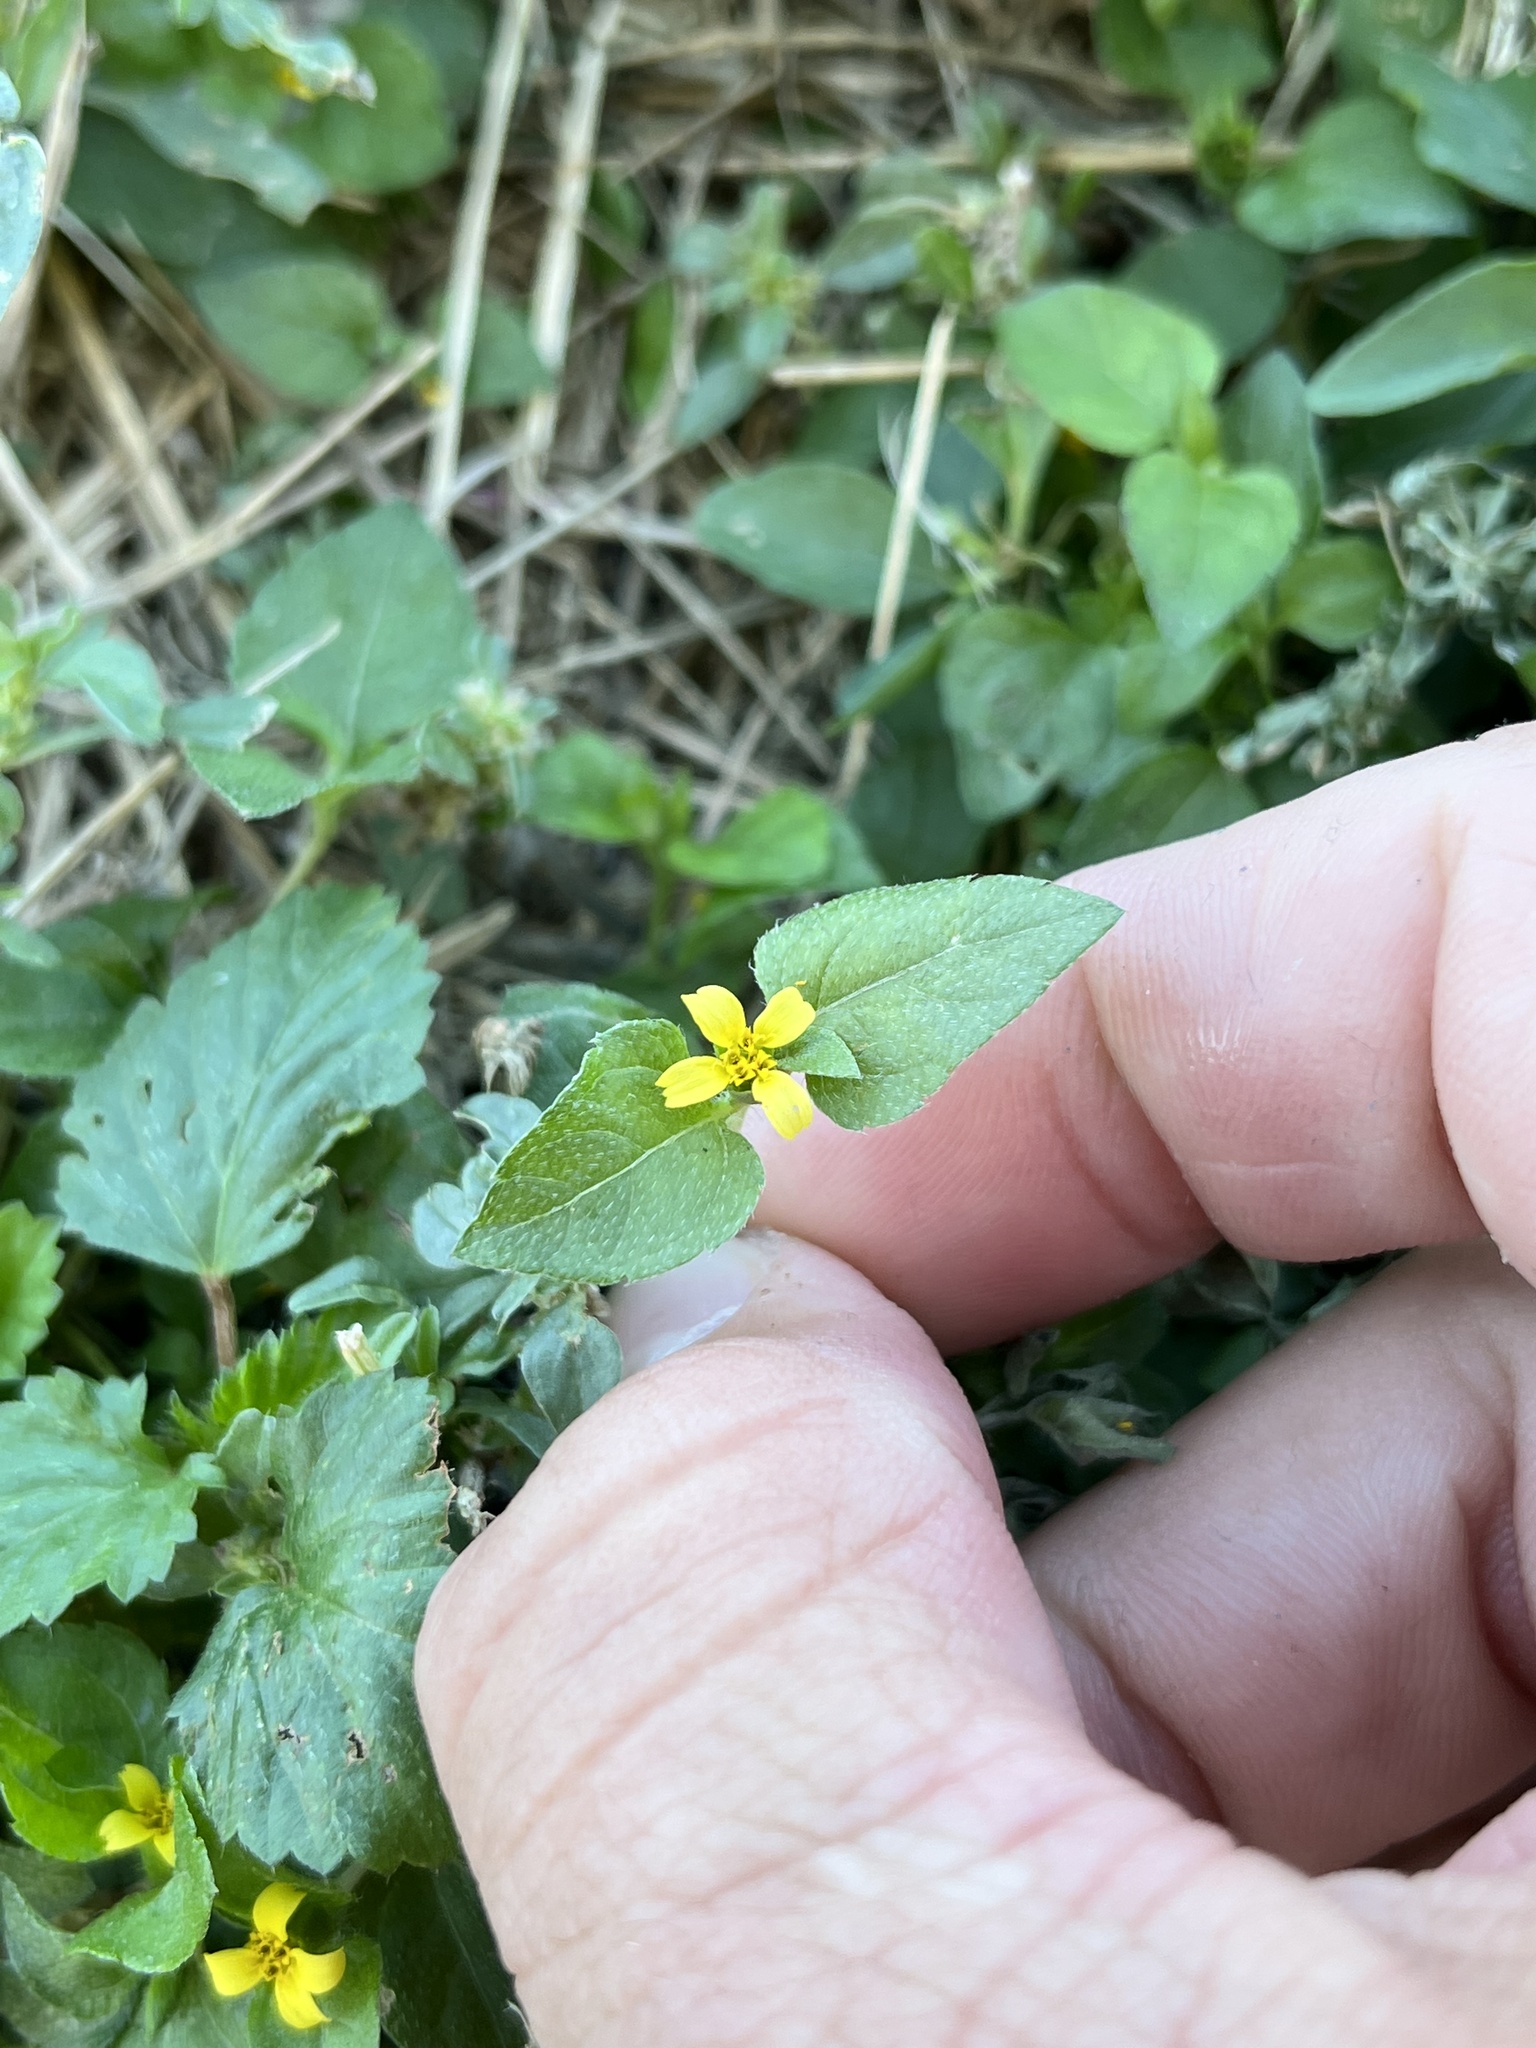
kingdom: Plantae
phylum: Tracheophyta
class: Magnoliopsida
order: Asterales
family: Asteraceae
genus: Calyptocarpus
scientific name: Calyptocarpus vialis
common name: Straggler daisy
